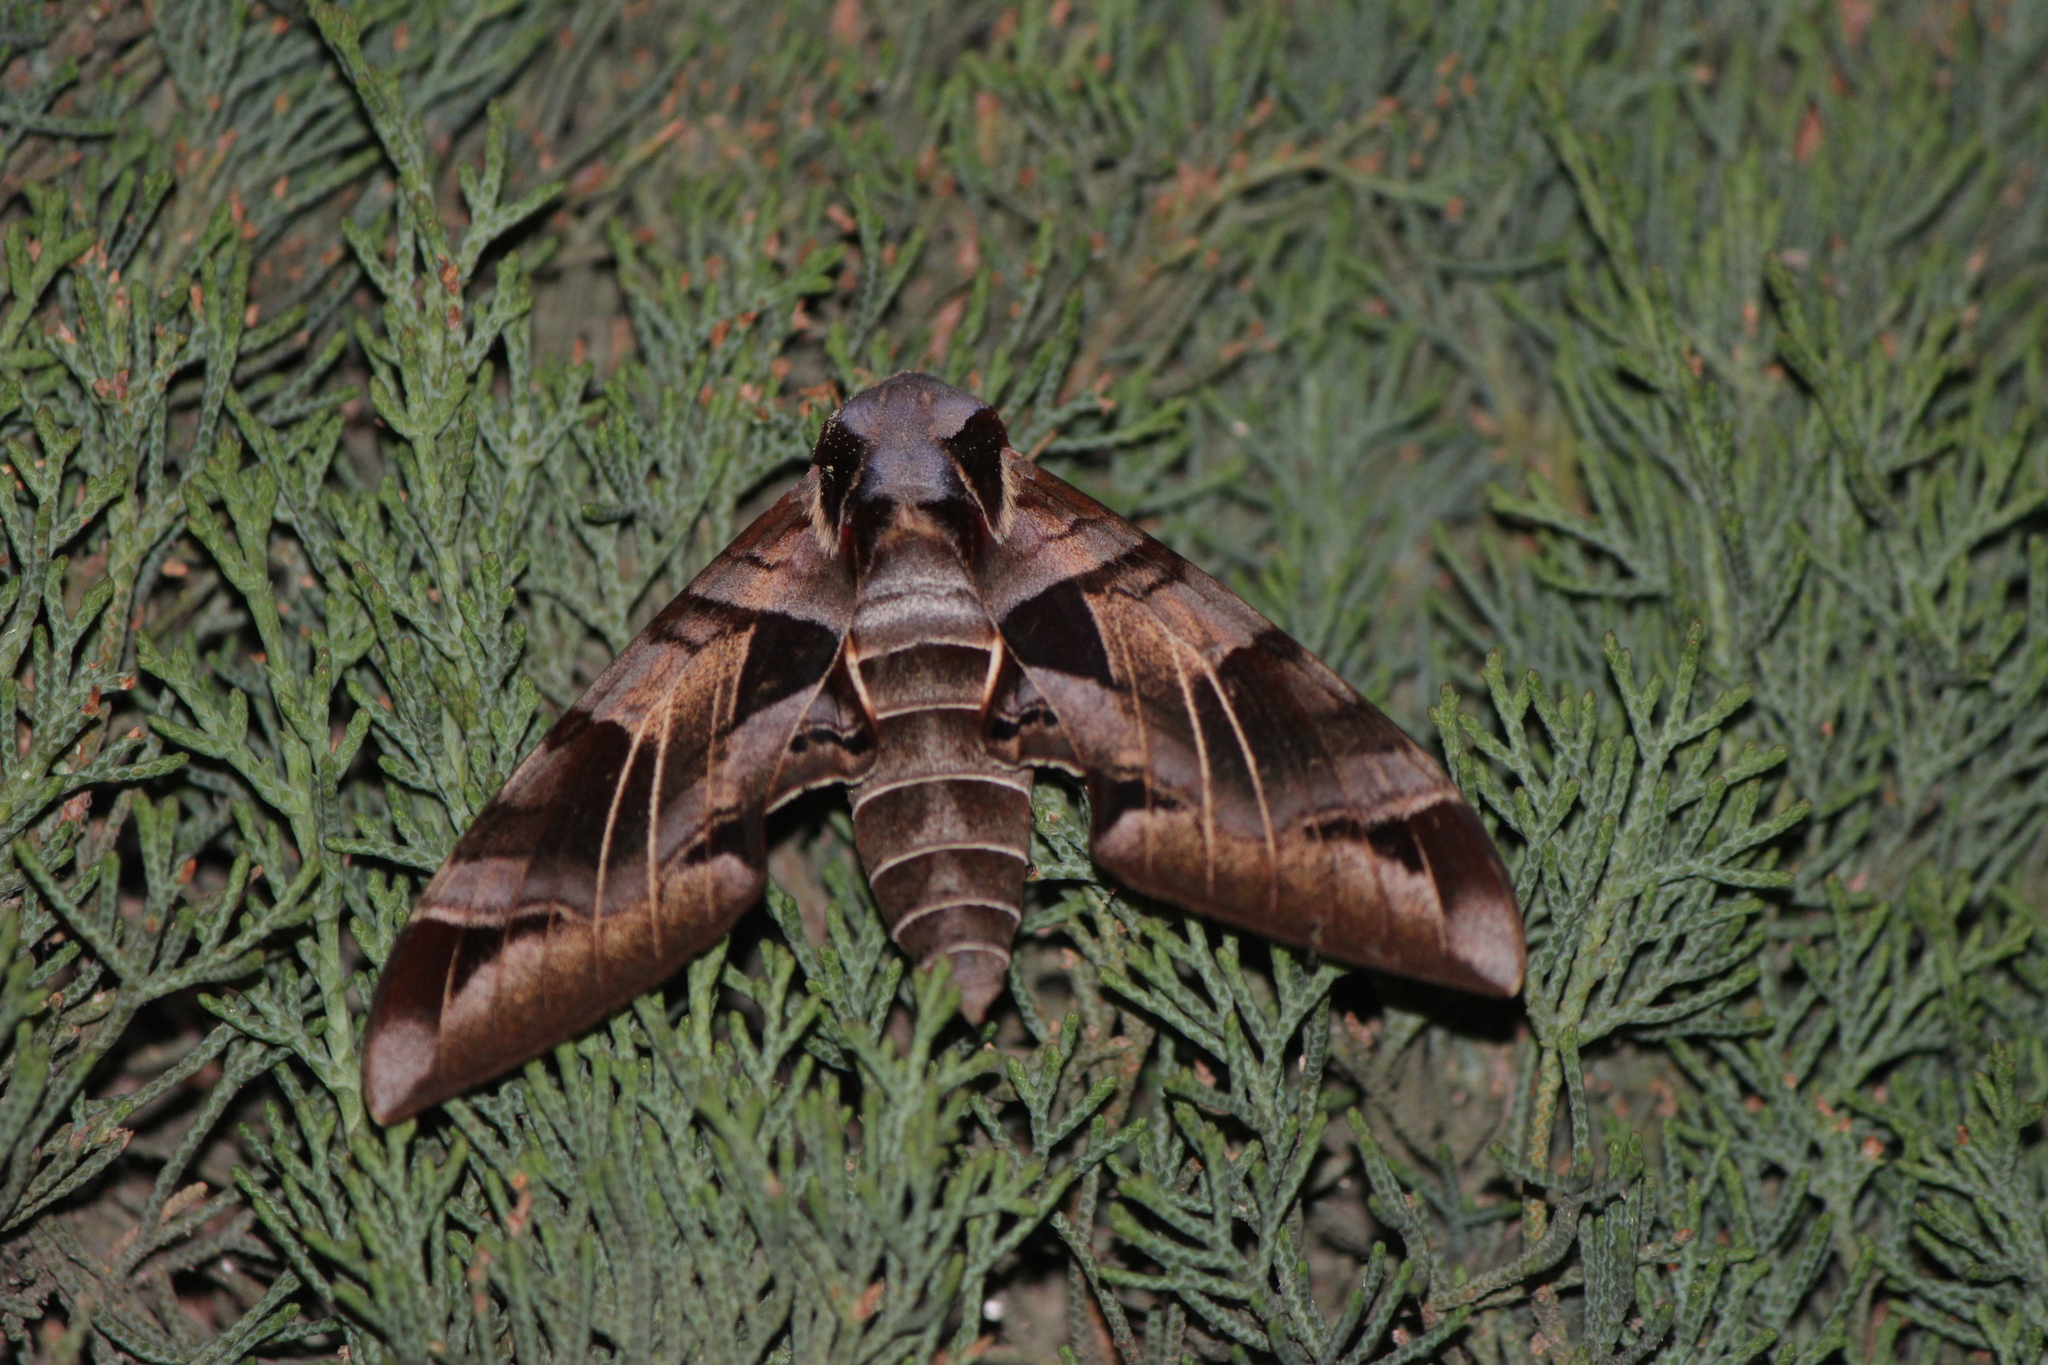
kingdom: Animalia
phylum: Arthropoda
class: Insecta
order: Lepidoptera
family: Sphingidae
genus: Eumorpha
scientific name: Eumorpha typhon
